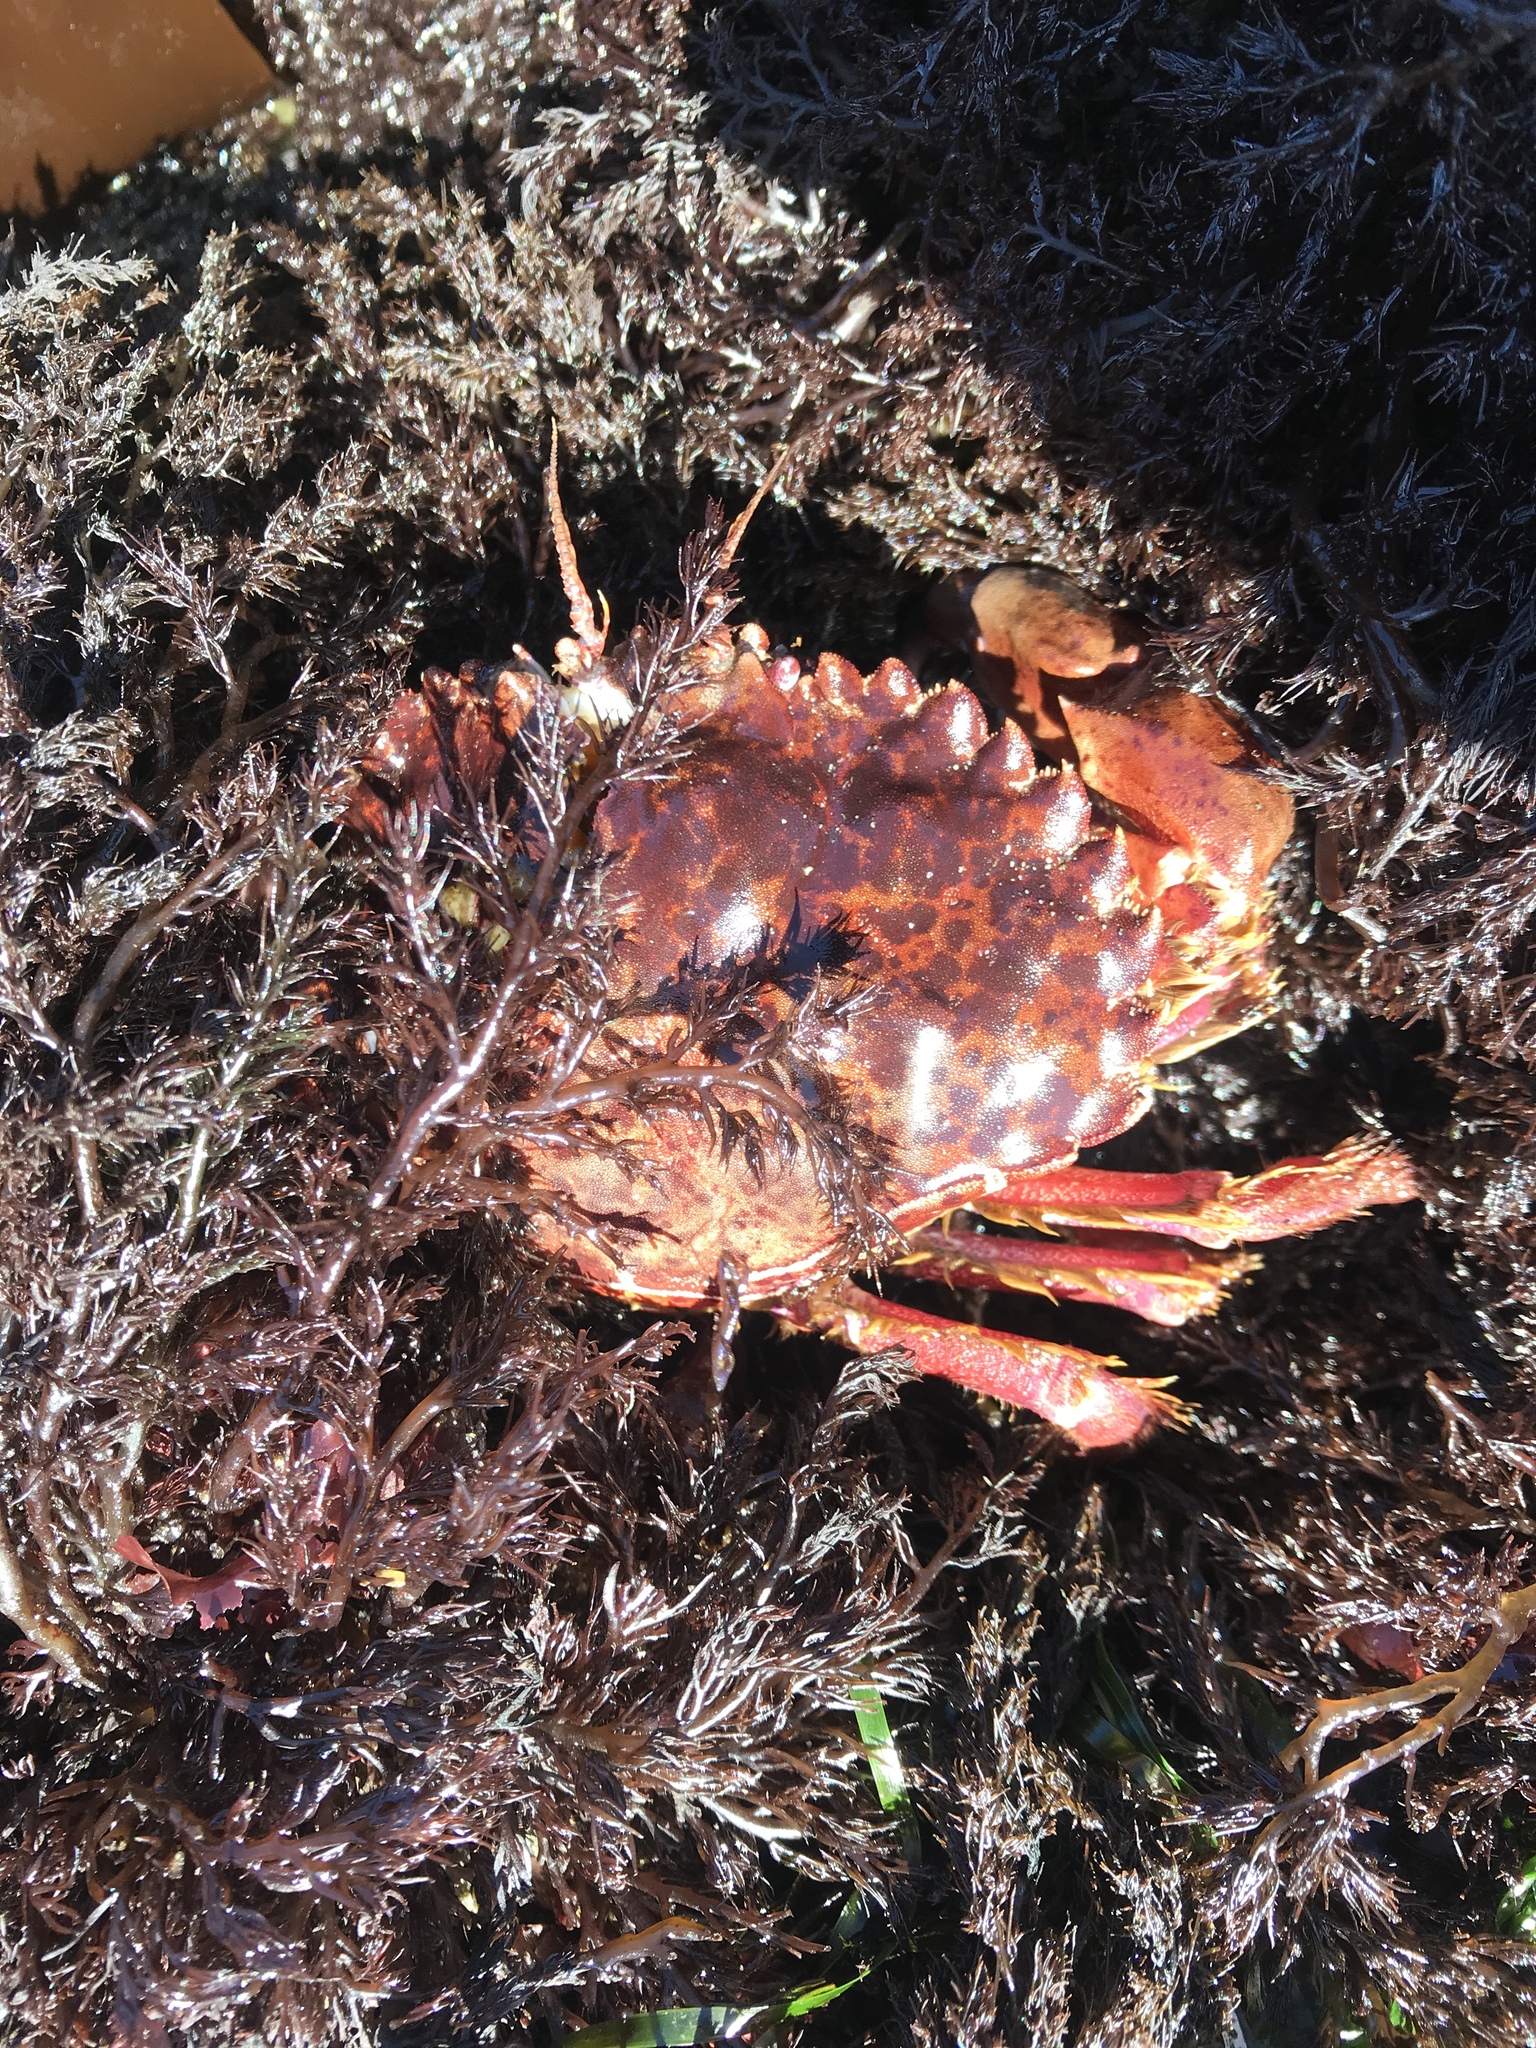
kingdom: Animalia
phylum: Arthropoda
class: Malacostraca
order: Decapoda
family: Cancridae
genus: Romaleon
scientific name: Romaleon antennarium
